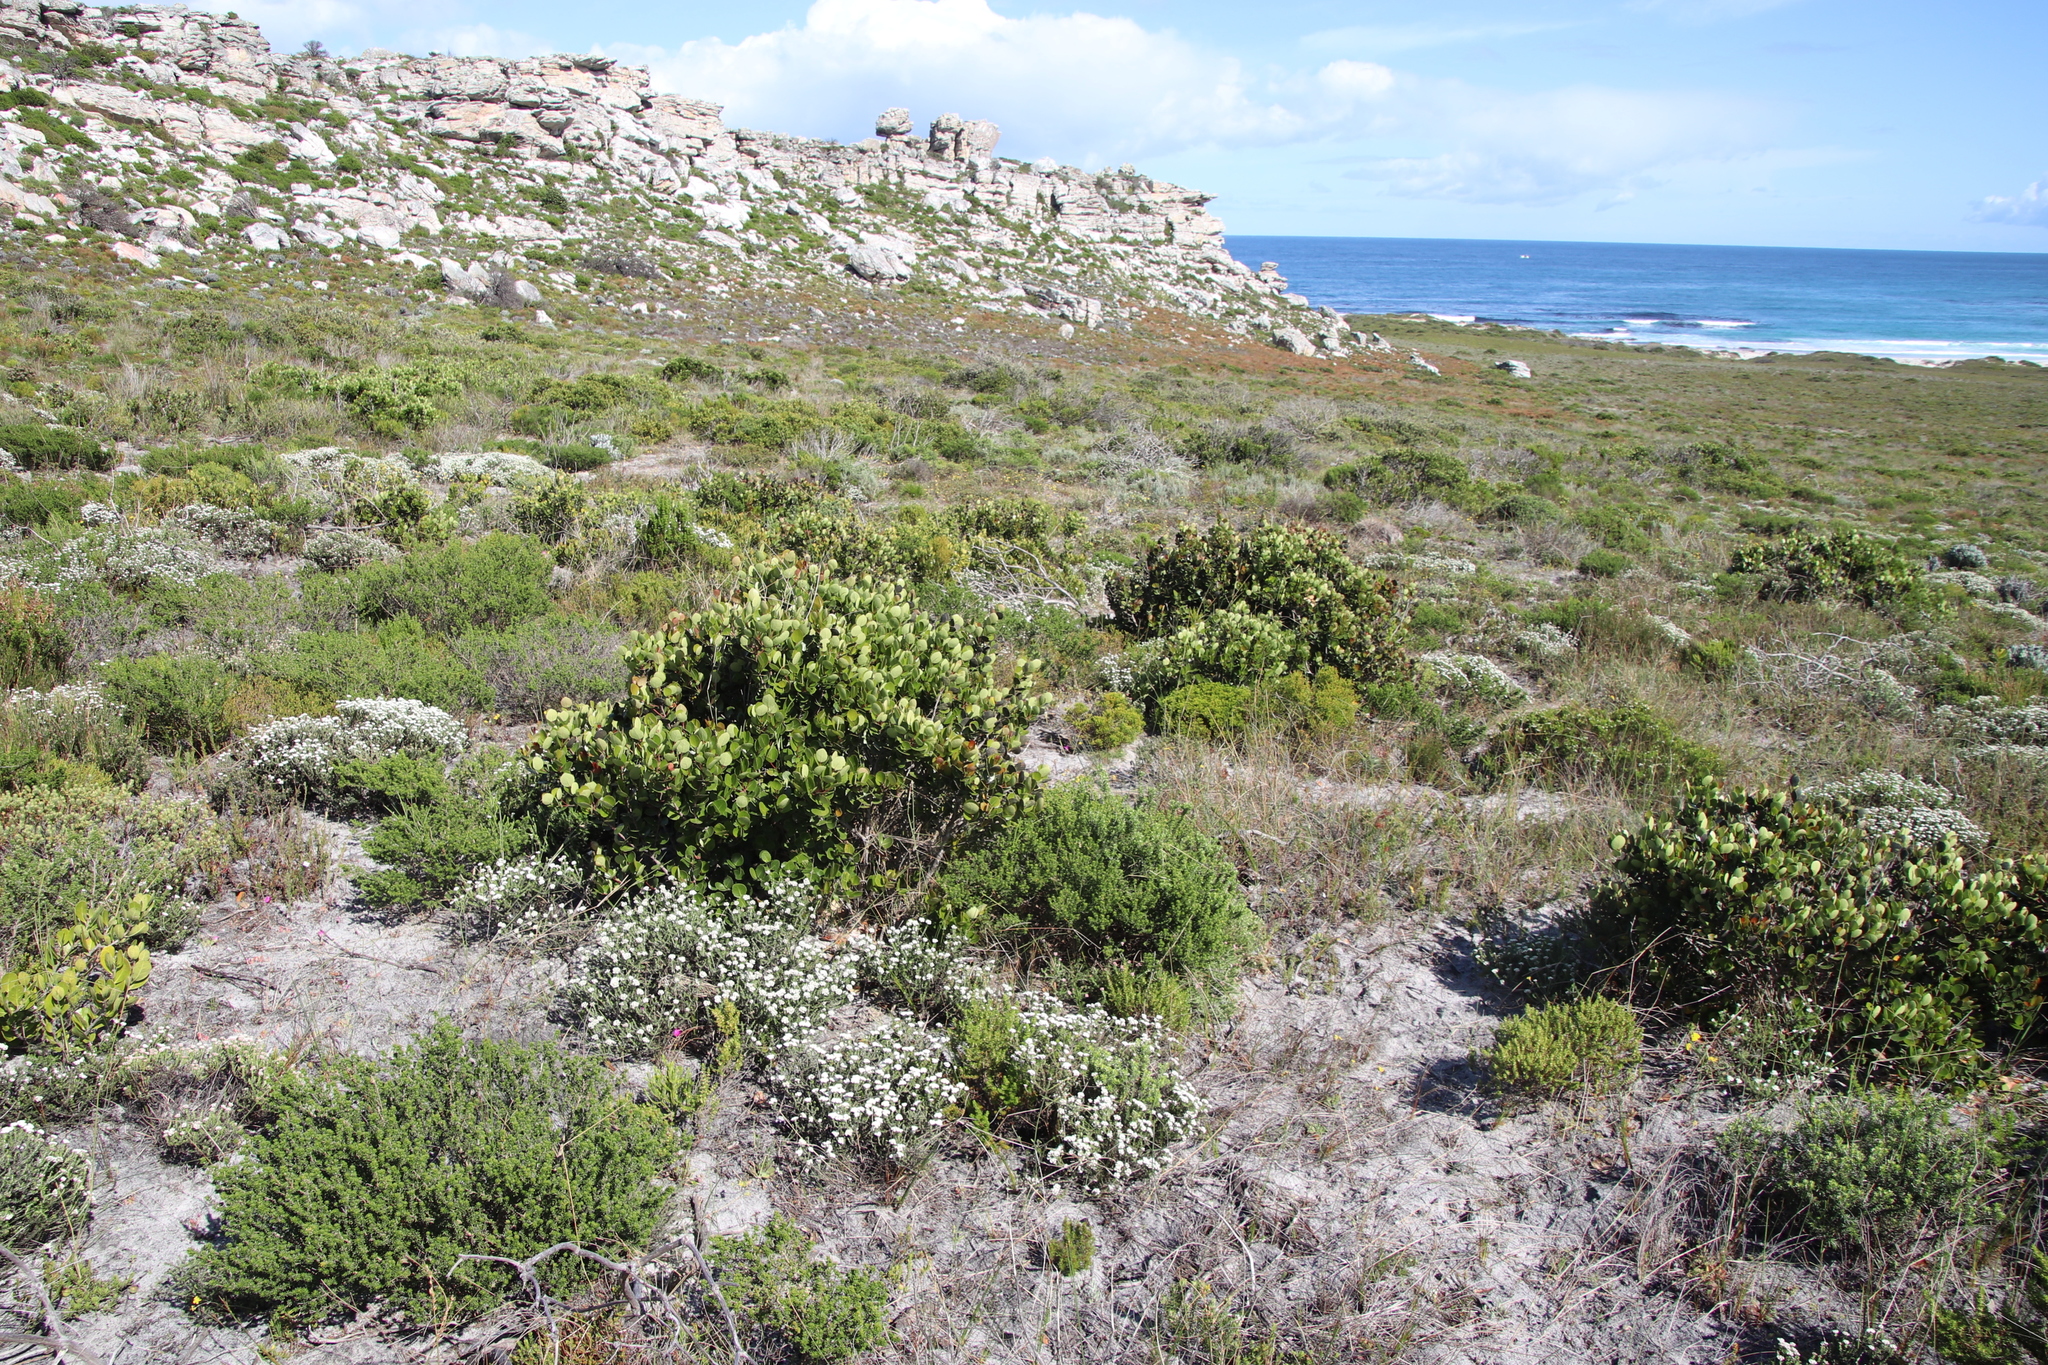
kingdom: Plantae
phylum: Tracheophyta
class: Magnoliopsida
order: Celastrales
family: Celastraceae
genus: Cassine
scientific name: Cassine peragua
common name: Cape saffron
